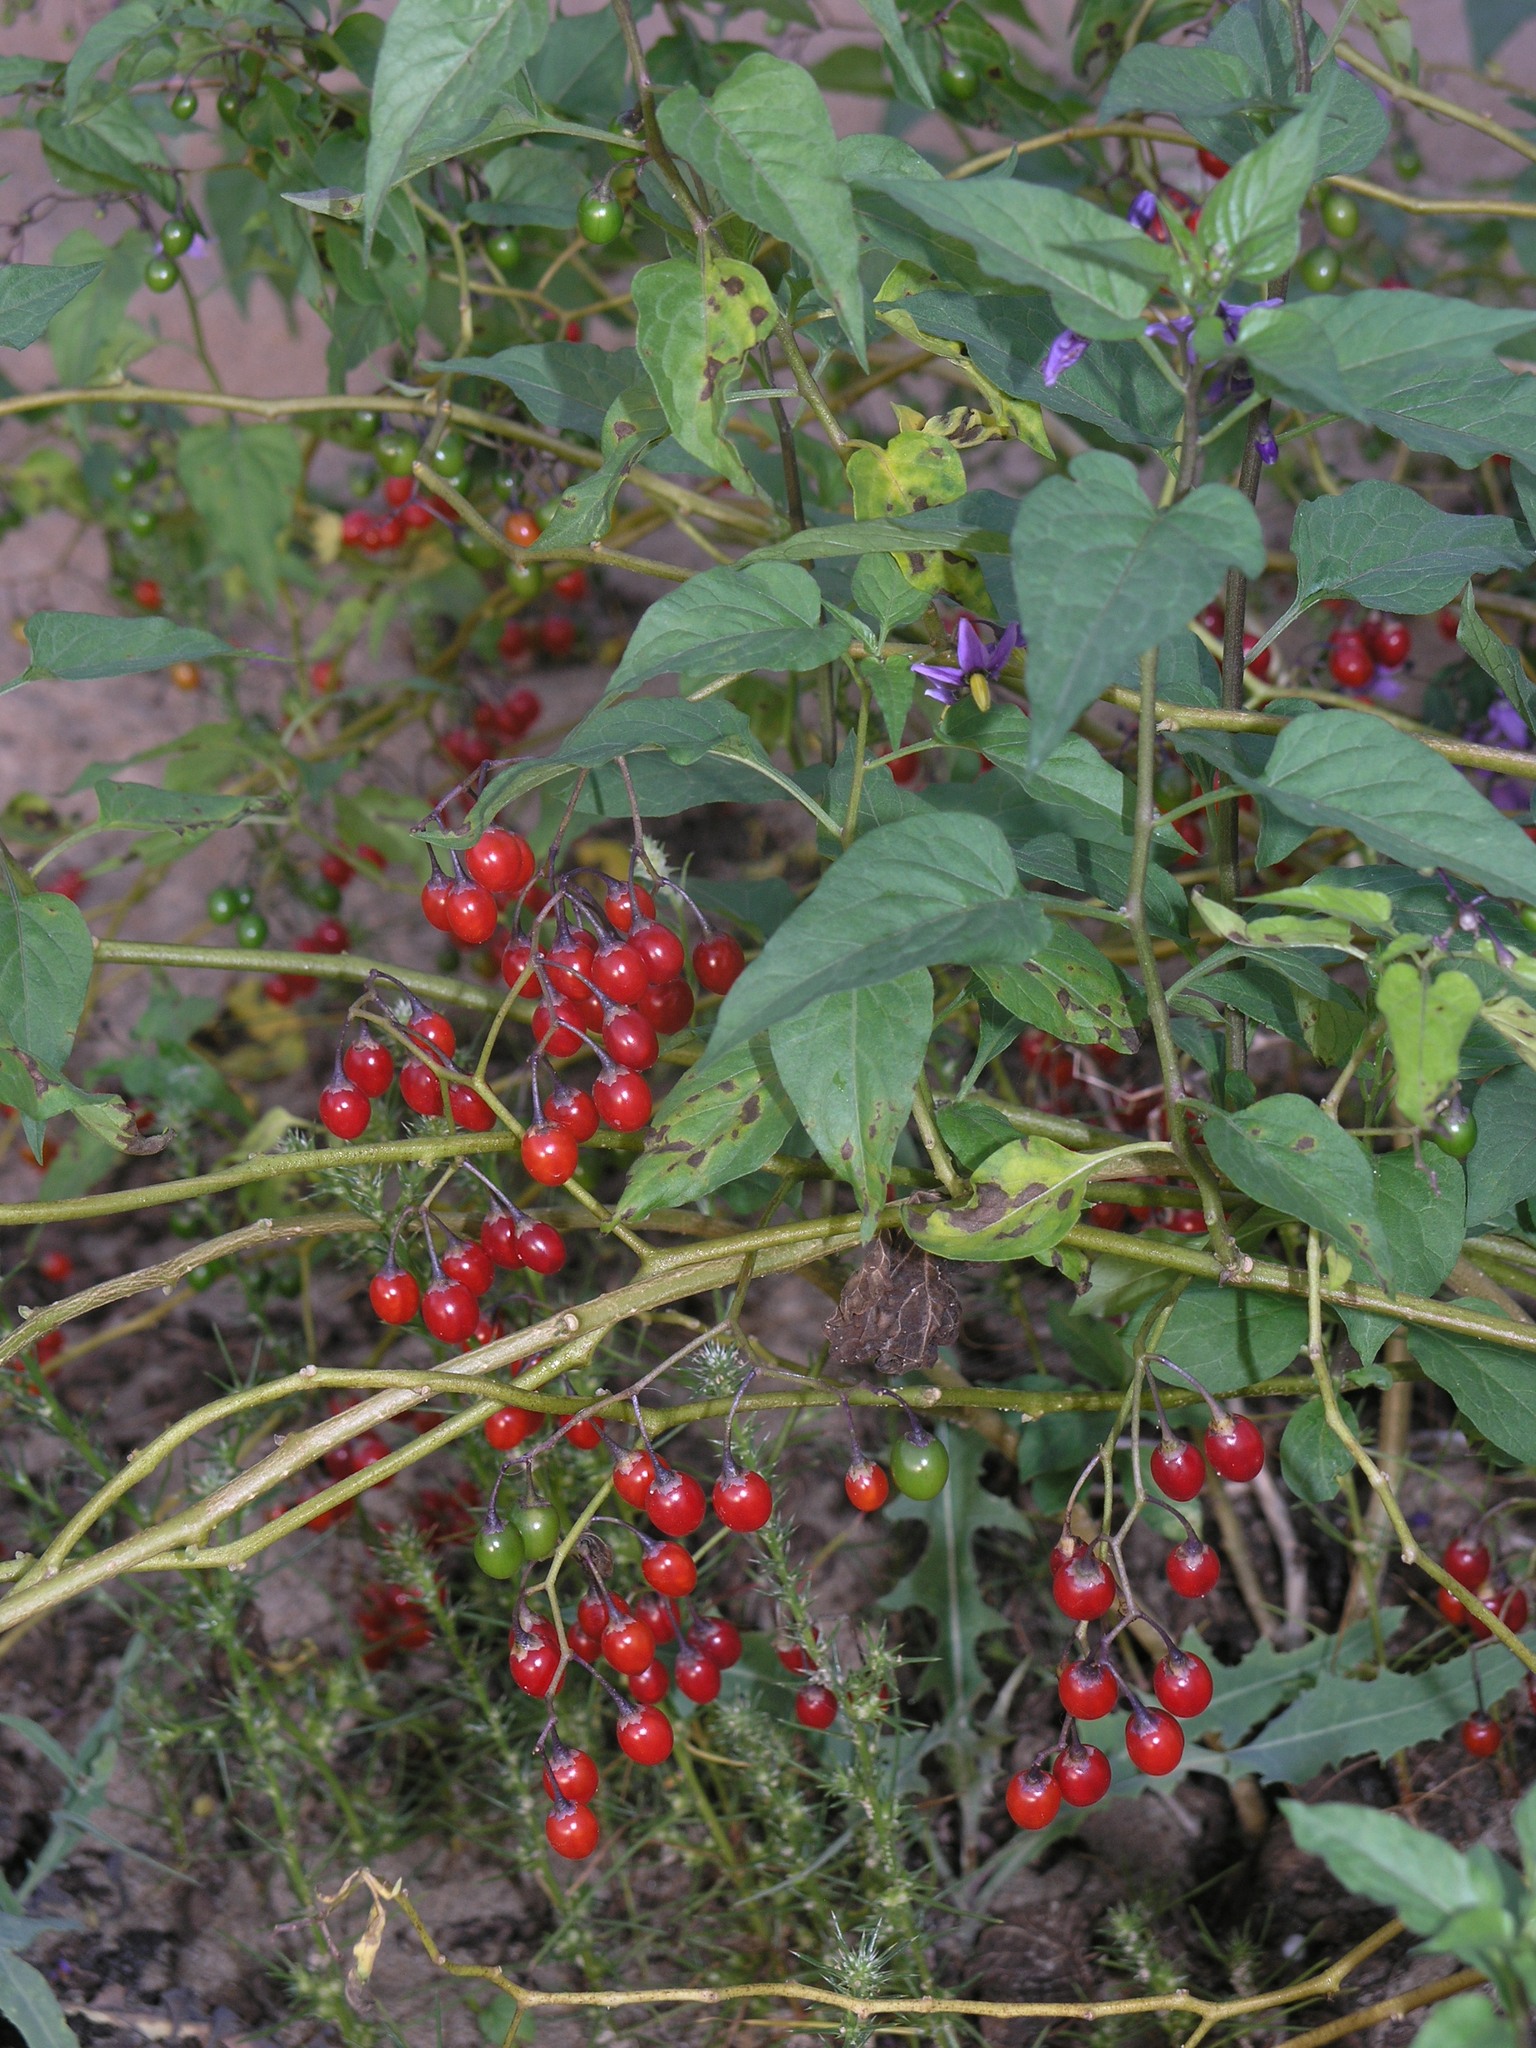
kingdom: Plantae
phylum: Tracheophyta
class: Magnoliopsida
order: Solanales
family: Solanaceae
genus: Solanum
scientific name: Solanum dulcamara
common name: Climbing nightshade
